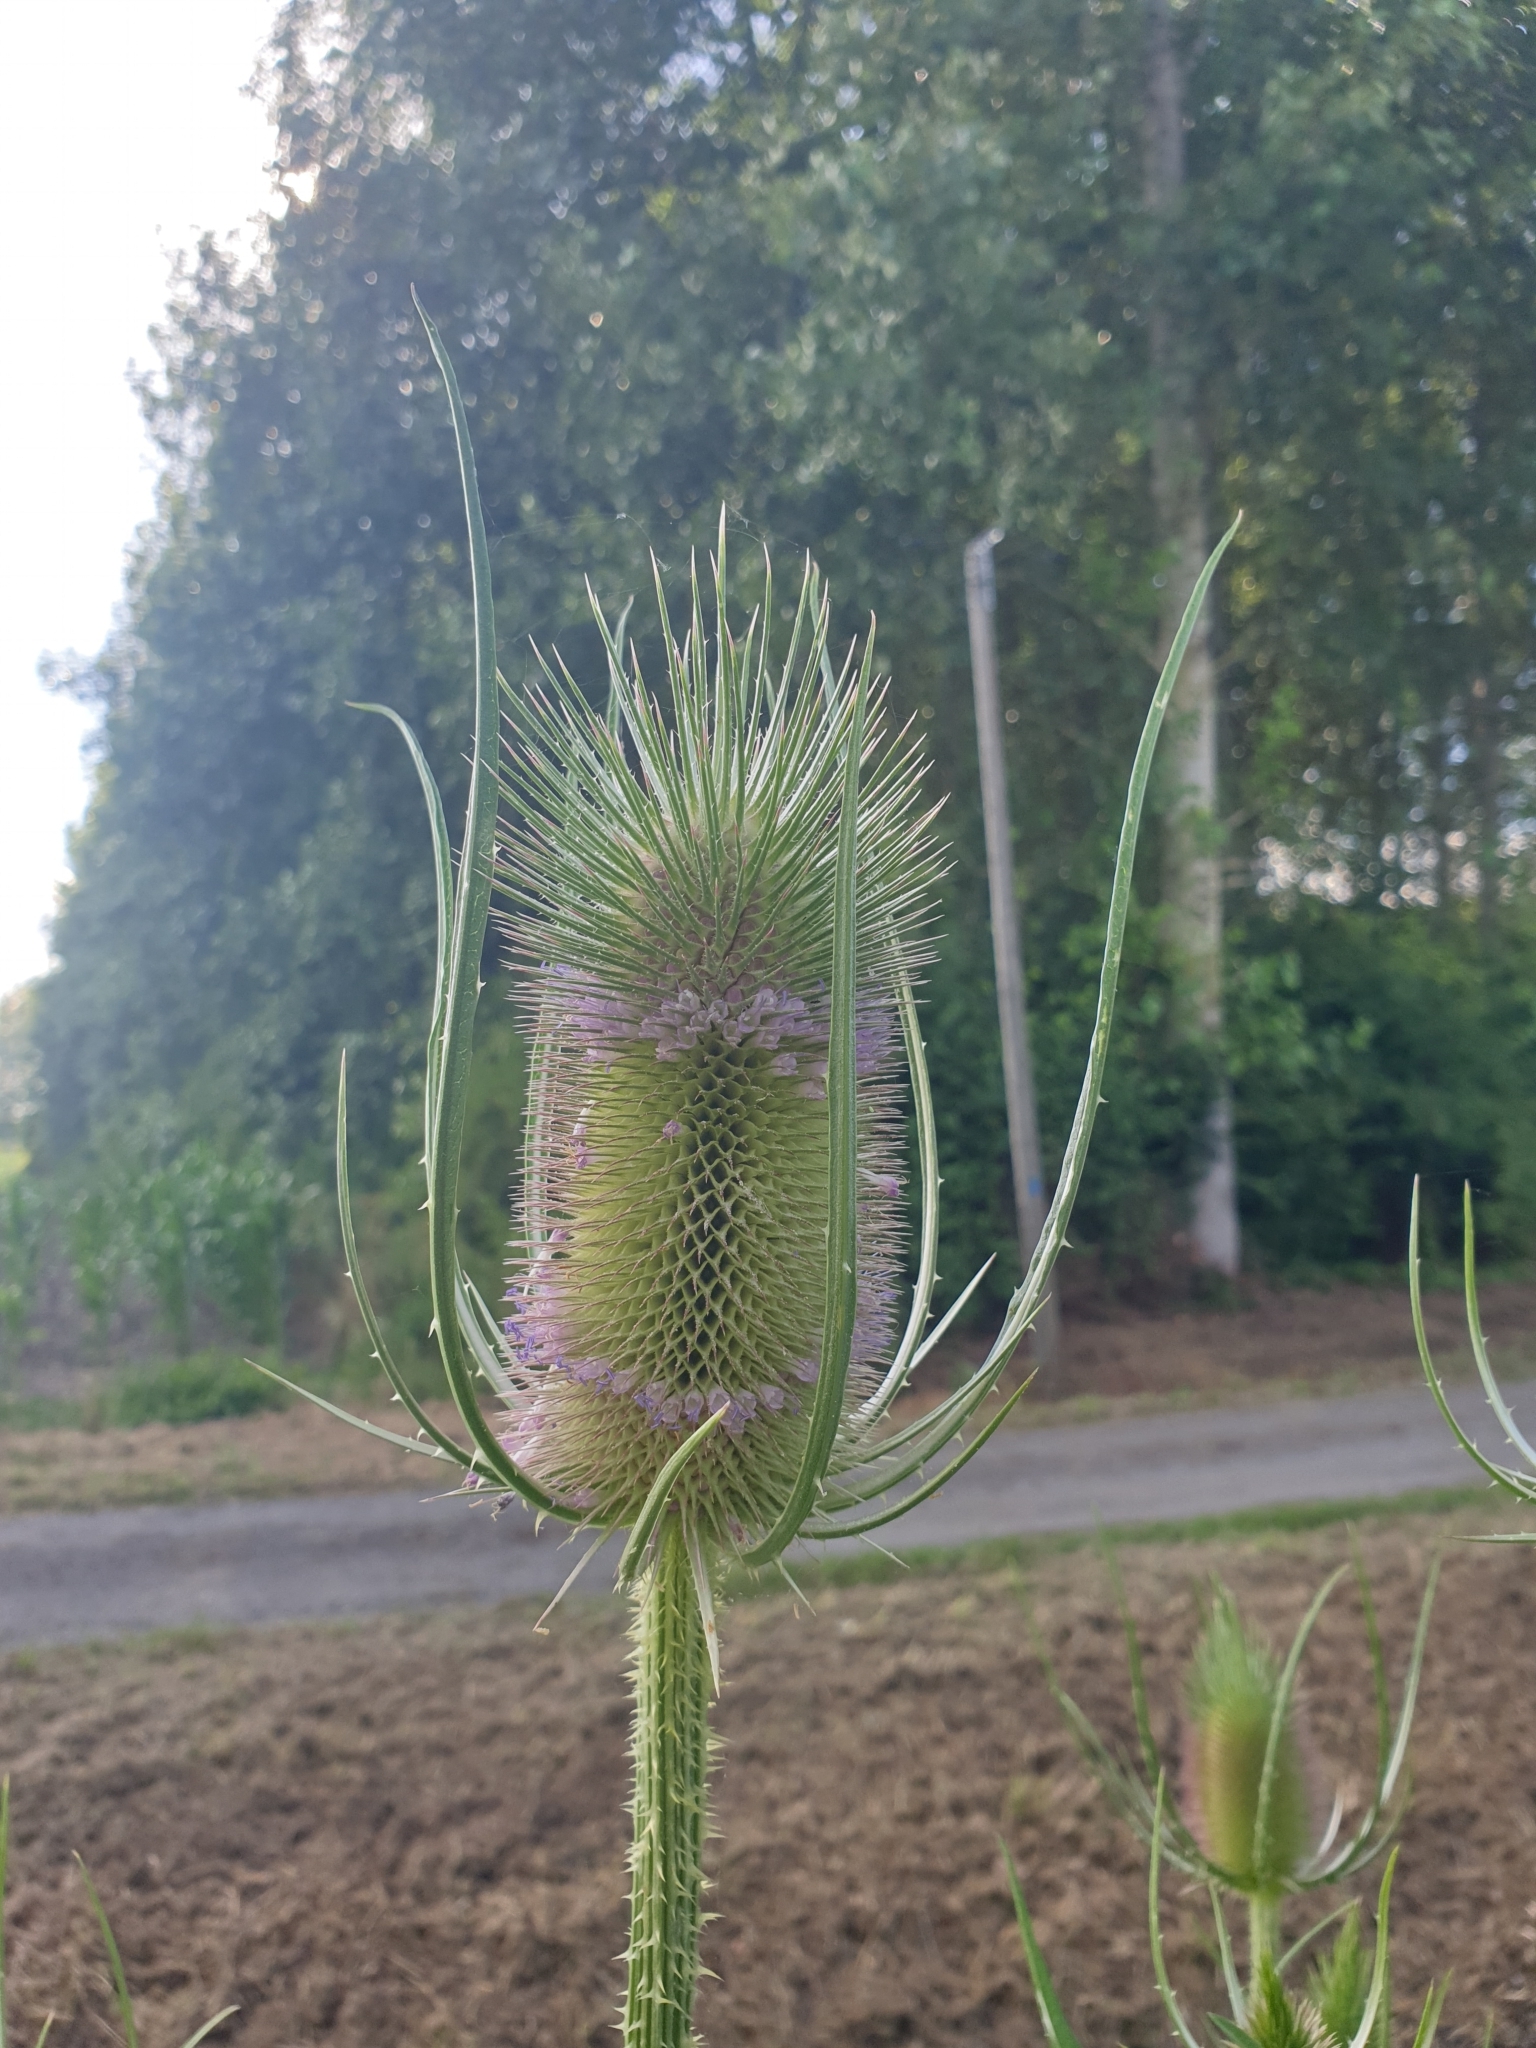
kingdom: Plantae
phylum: Tracheophyta
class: Magnoliopsida
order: Dipsacales
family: Caprifoliaceae
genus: Dipsacus
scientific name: Dipsacus fullonum
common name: Teasel
